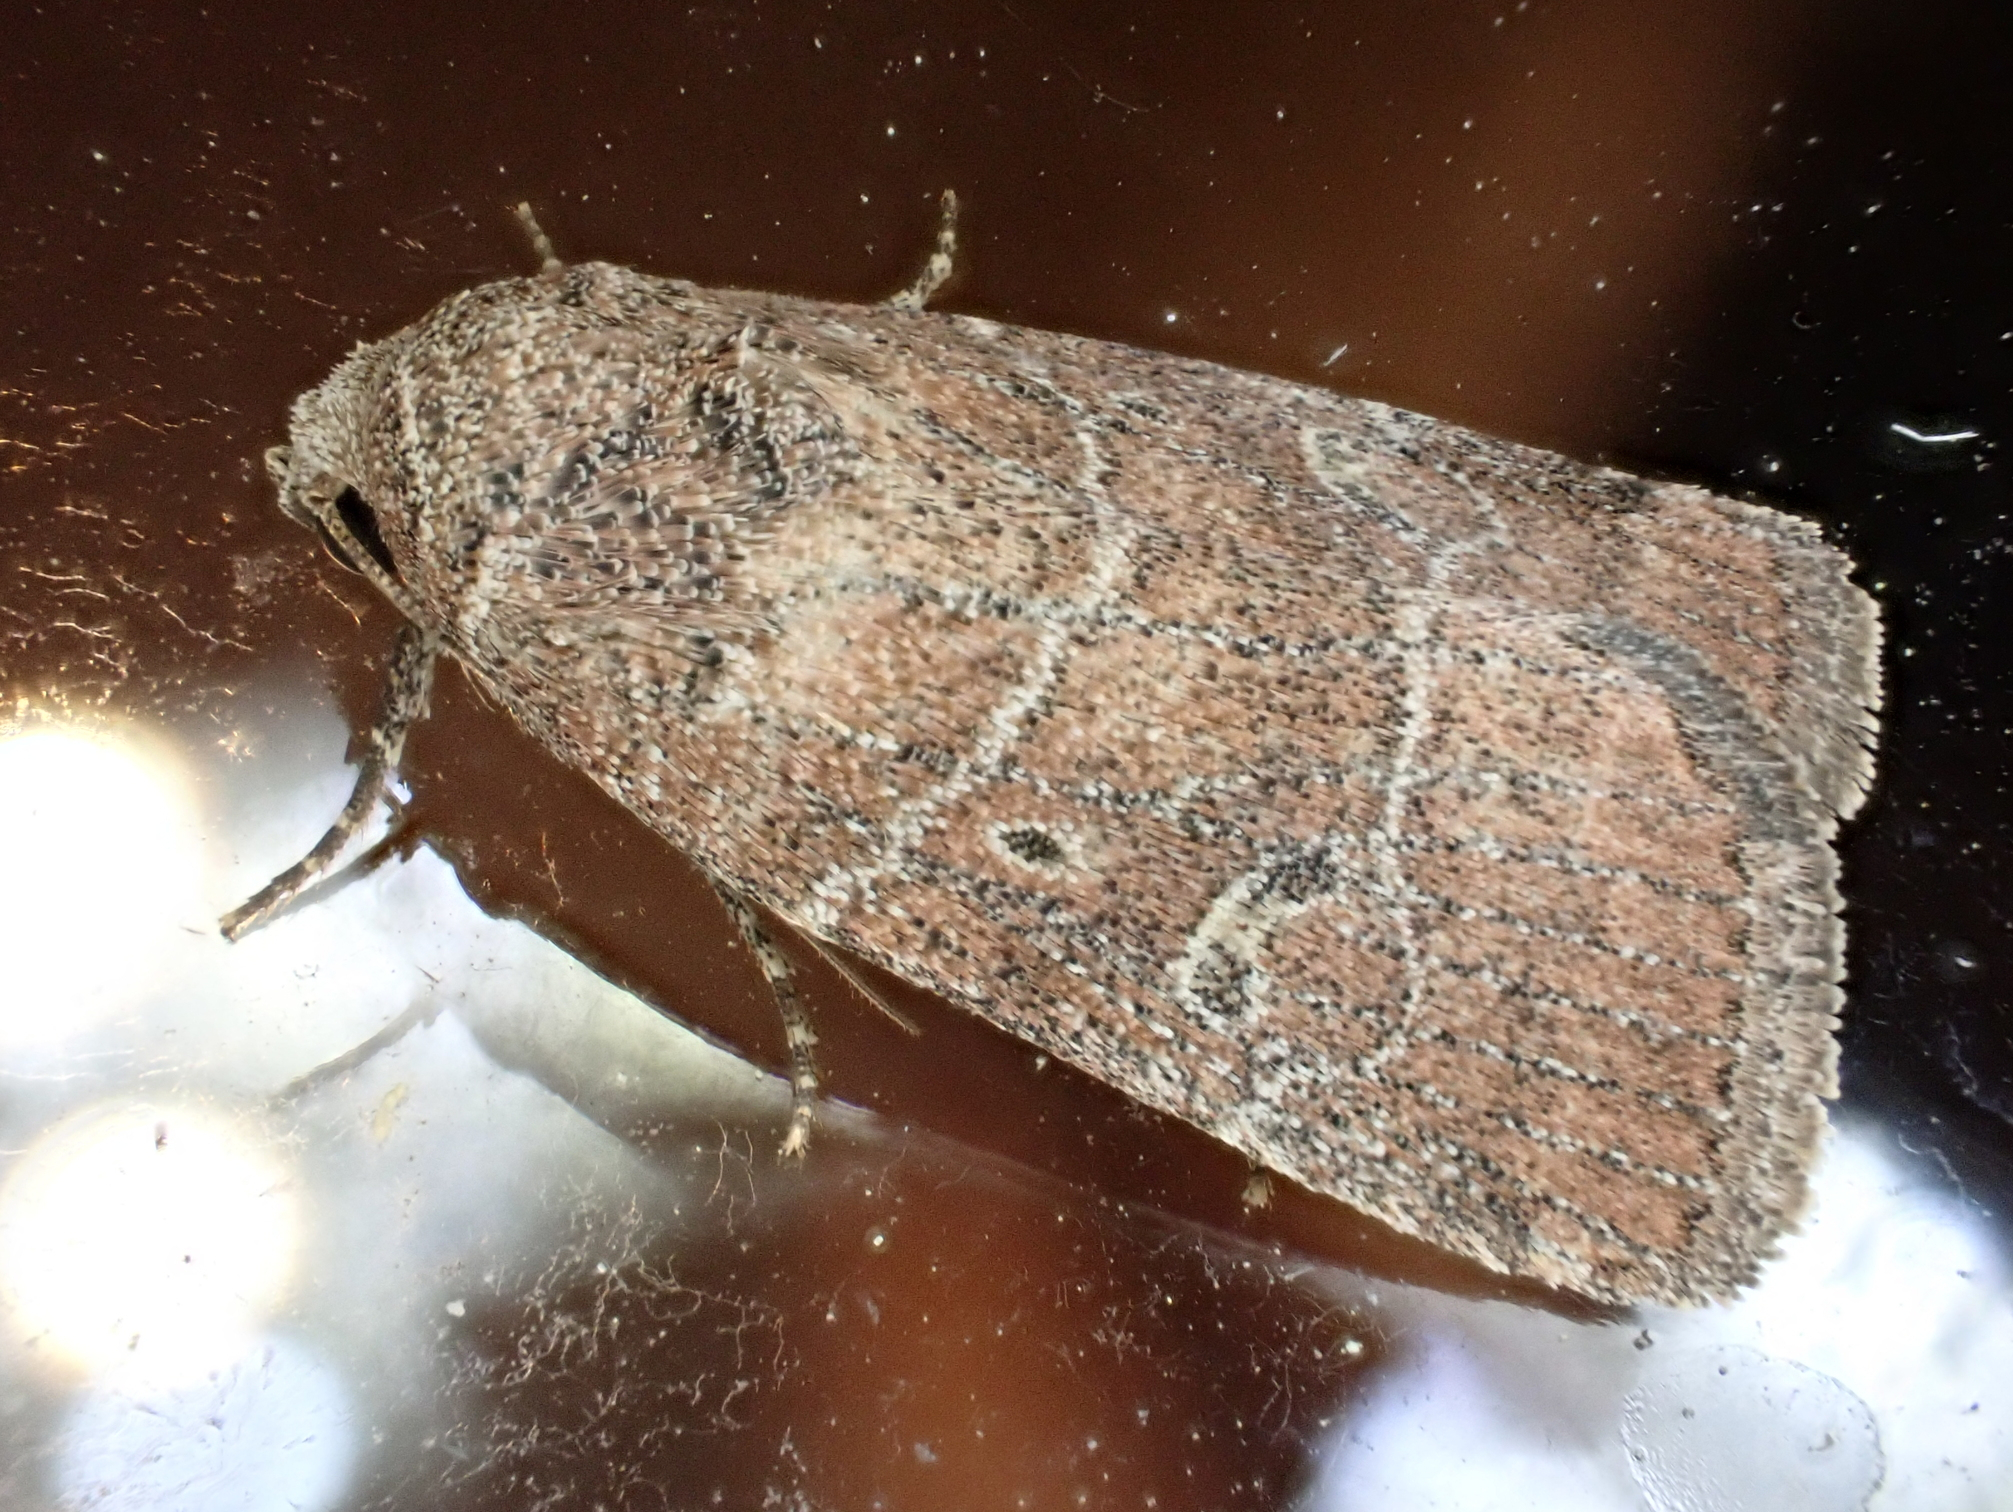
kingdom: Animalia
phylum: Arthropoda
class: Insecta
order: Lepidoptera
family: Noctuidae
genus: Elaphria
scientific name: Elaphria grata
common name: Grateful midget moth
